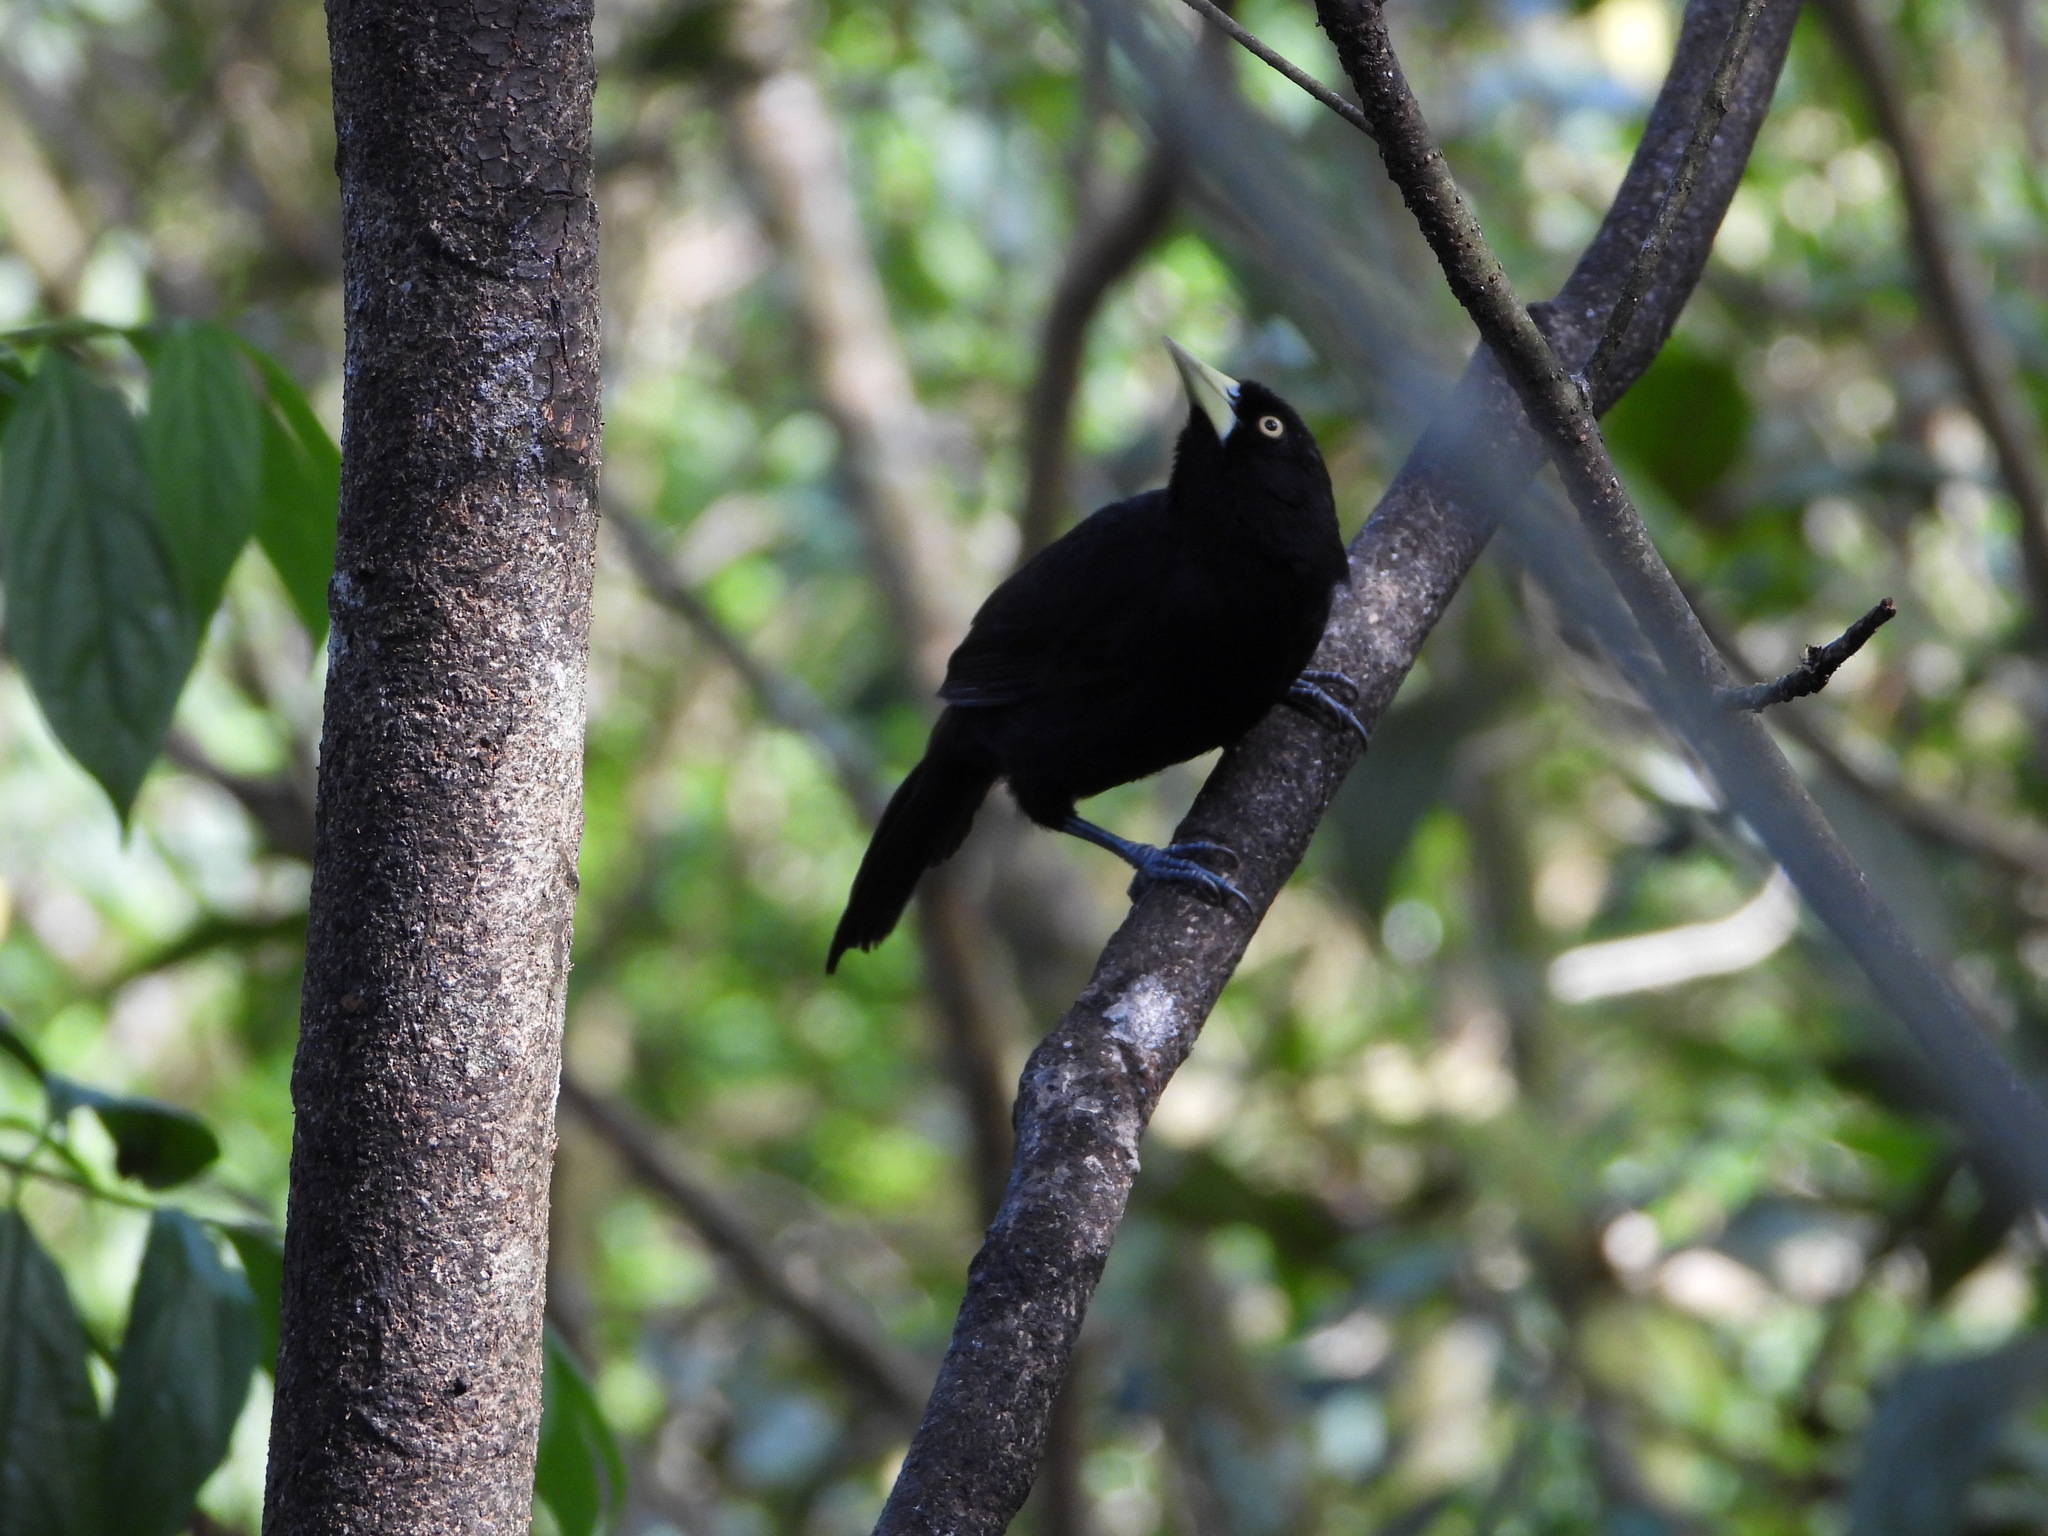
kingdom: Animalia
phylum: Chordata
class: Aves
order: Passeriformes
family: Icteridae
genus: Amblycercus
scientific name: Amblycercus holosericeus
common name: Yellow-billed cacique
